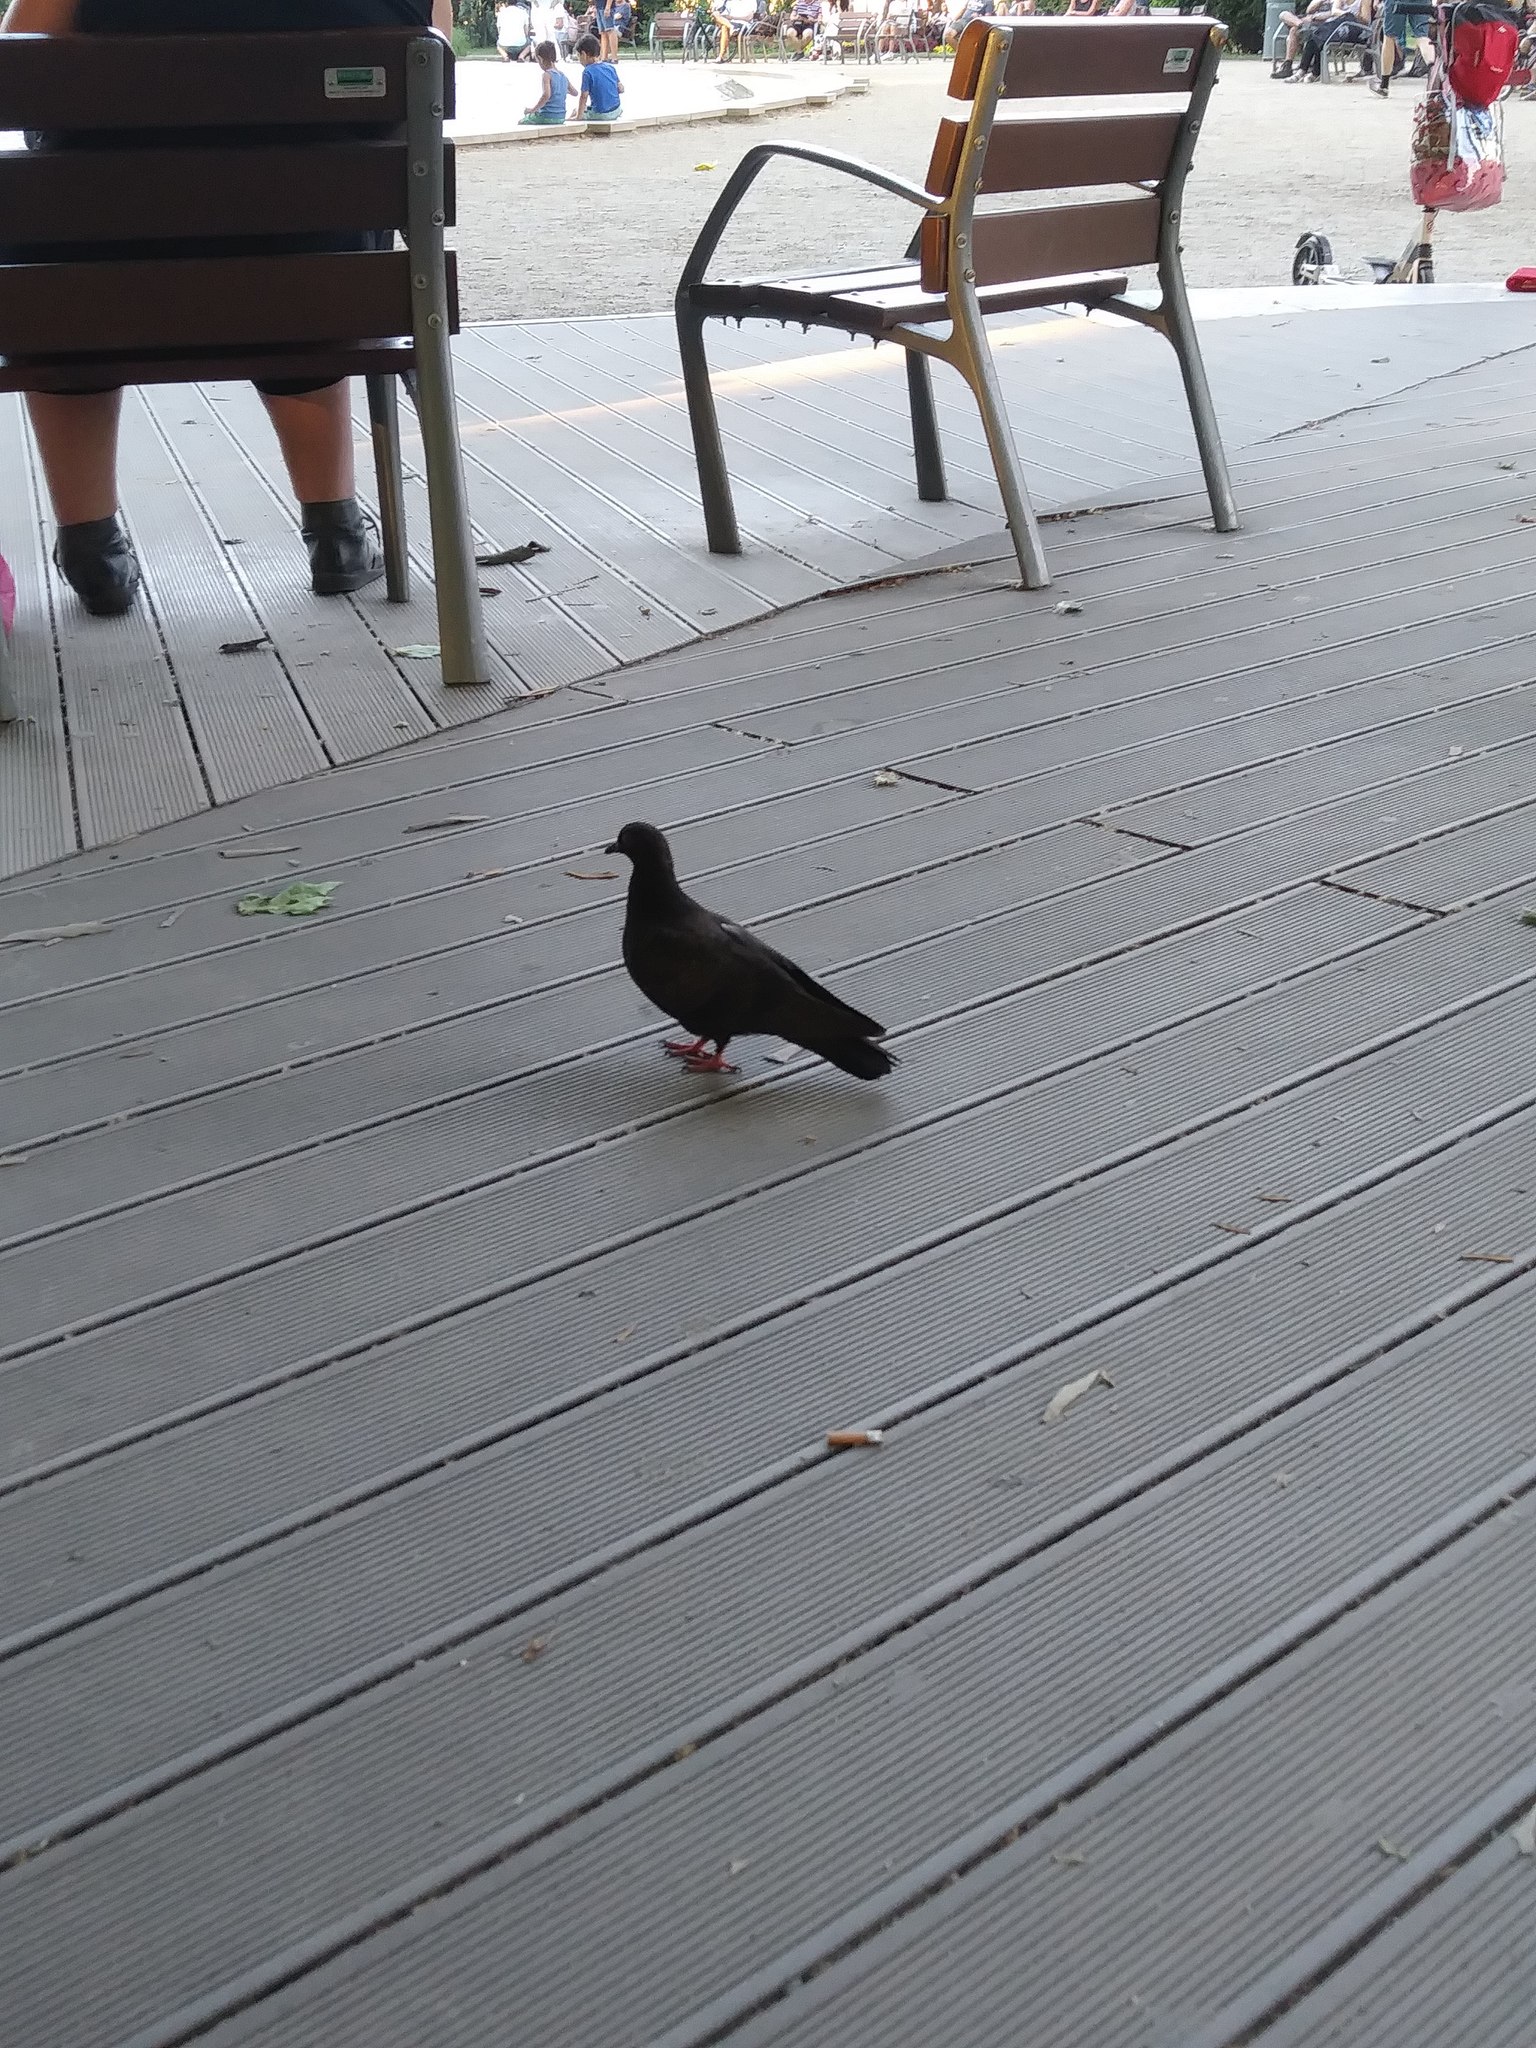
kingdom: Animalia
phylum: Chordata
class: Aves
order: Columbiformes
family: Columbidae
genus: Columba
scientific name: Columba livia
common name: Rock pigeon
